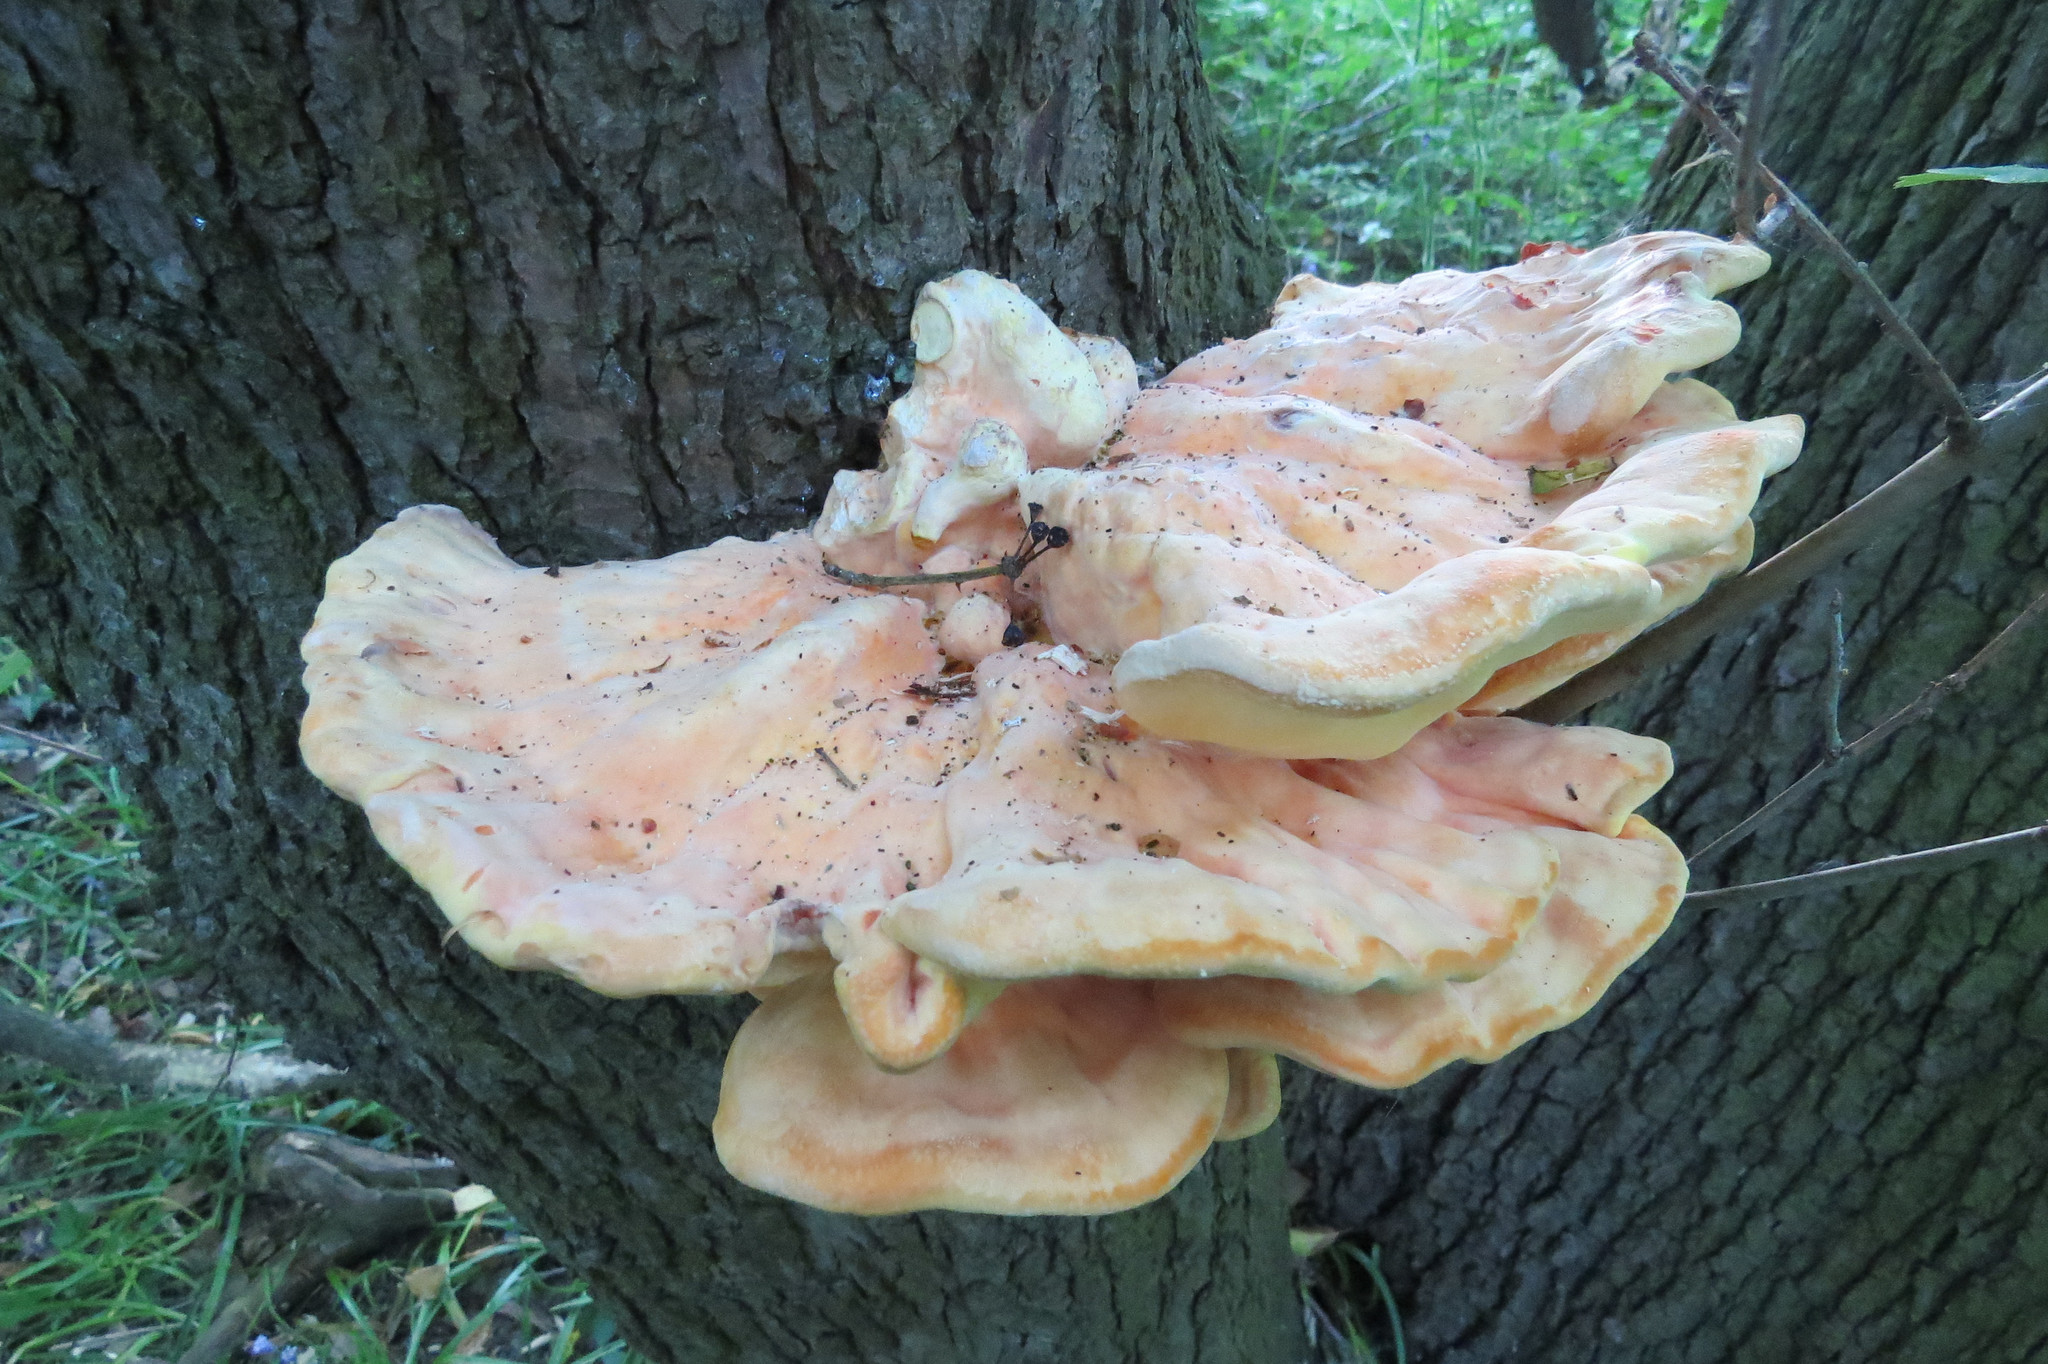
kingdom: Fungi
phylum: Basidiomycota
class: Agaricomycetes
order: Polyporales
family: Laetiporaceae
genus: Laetiporus
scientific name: Laetiporus sulphureus
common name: Chicken of the woods
